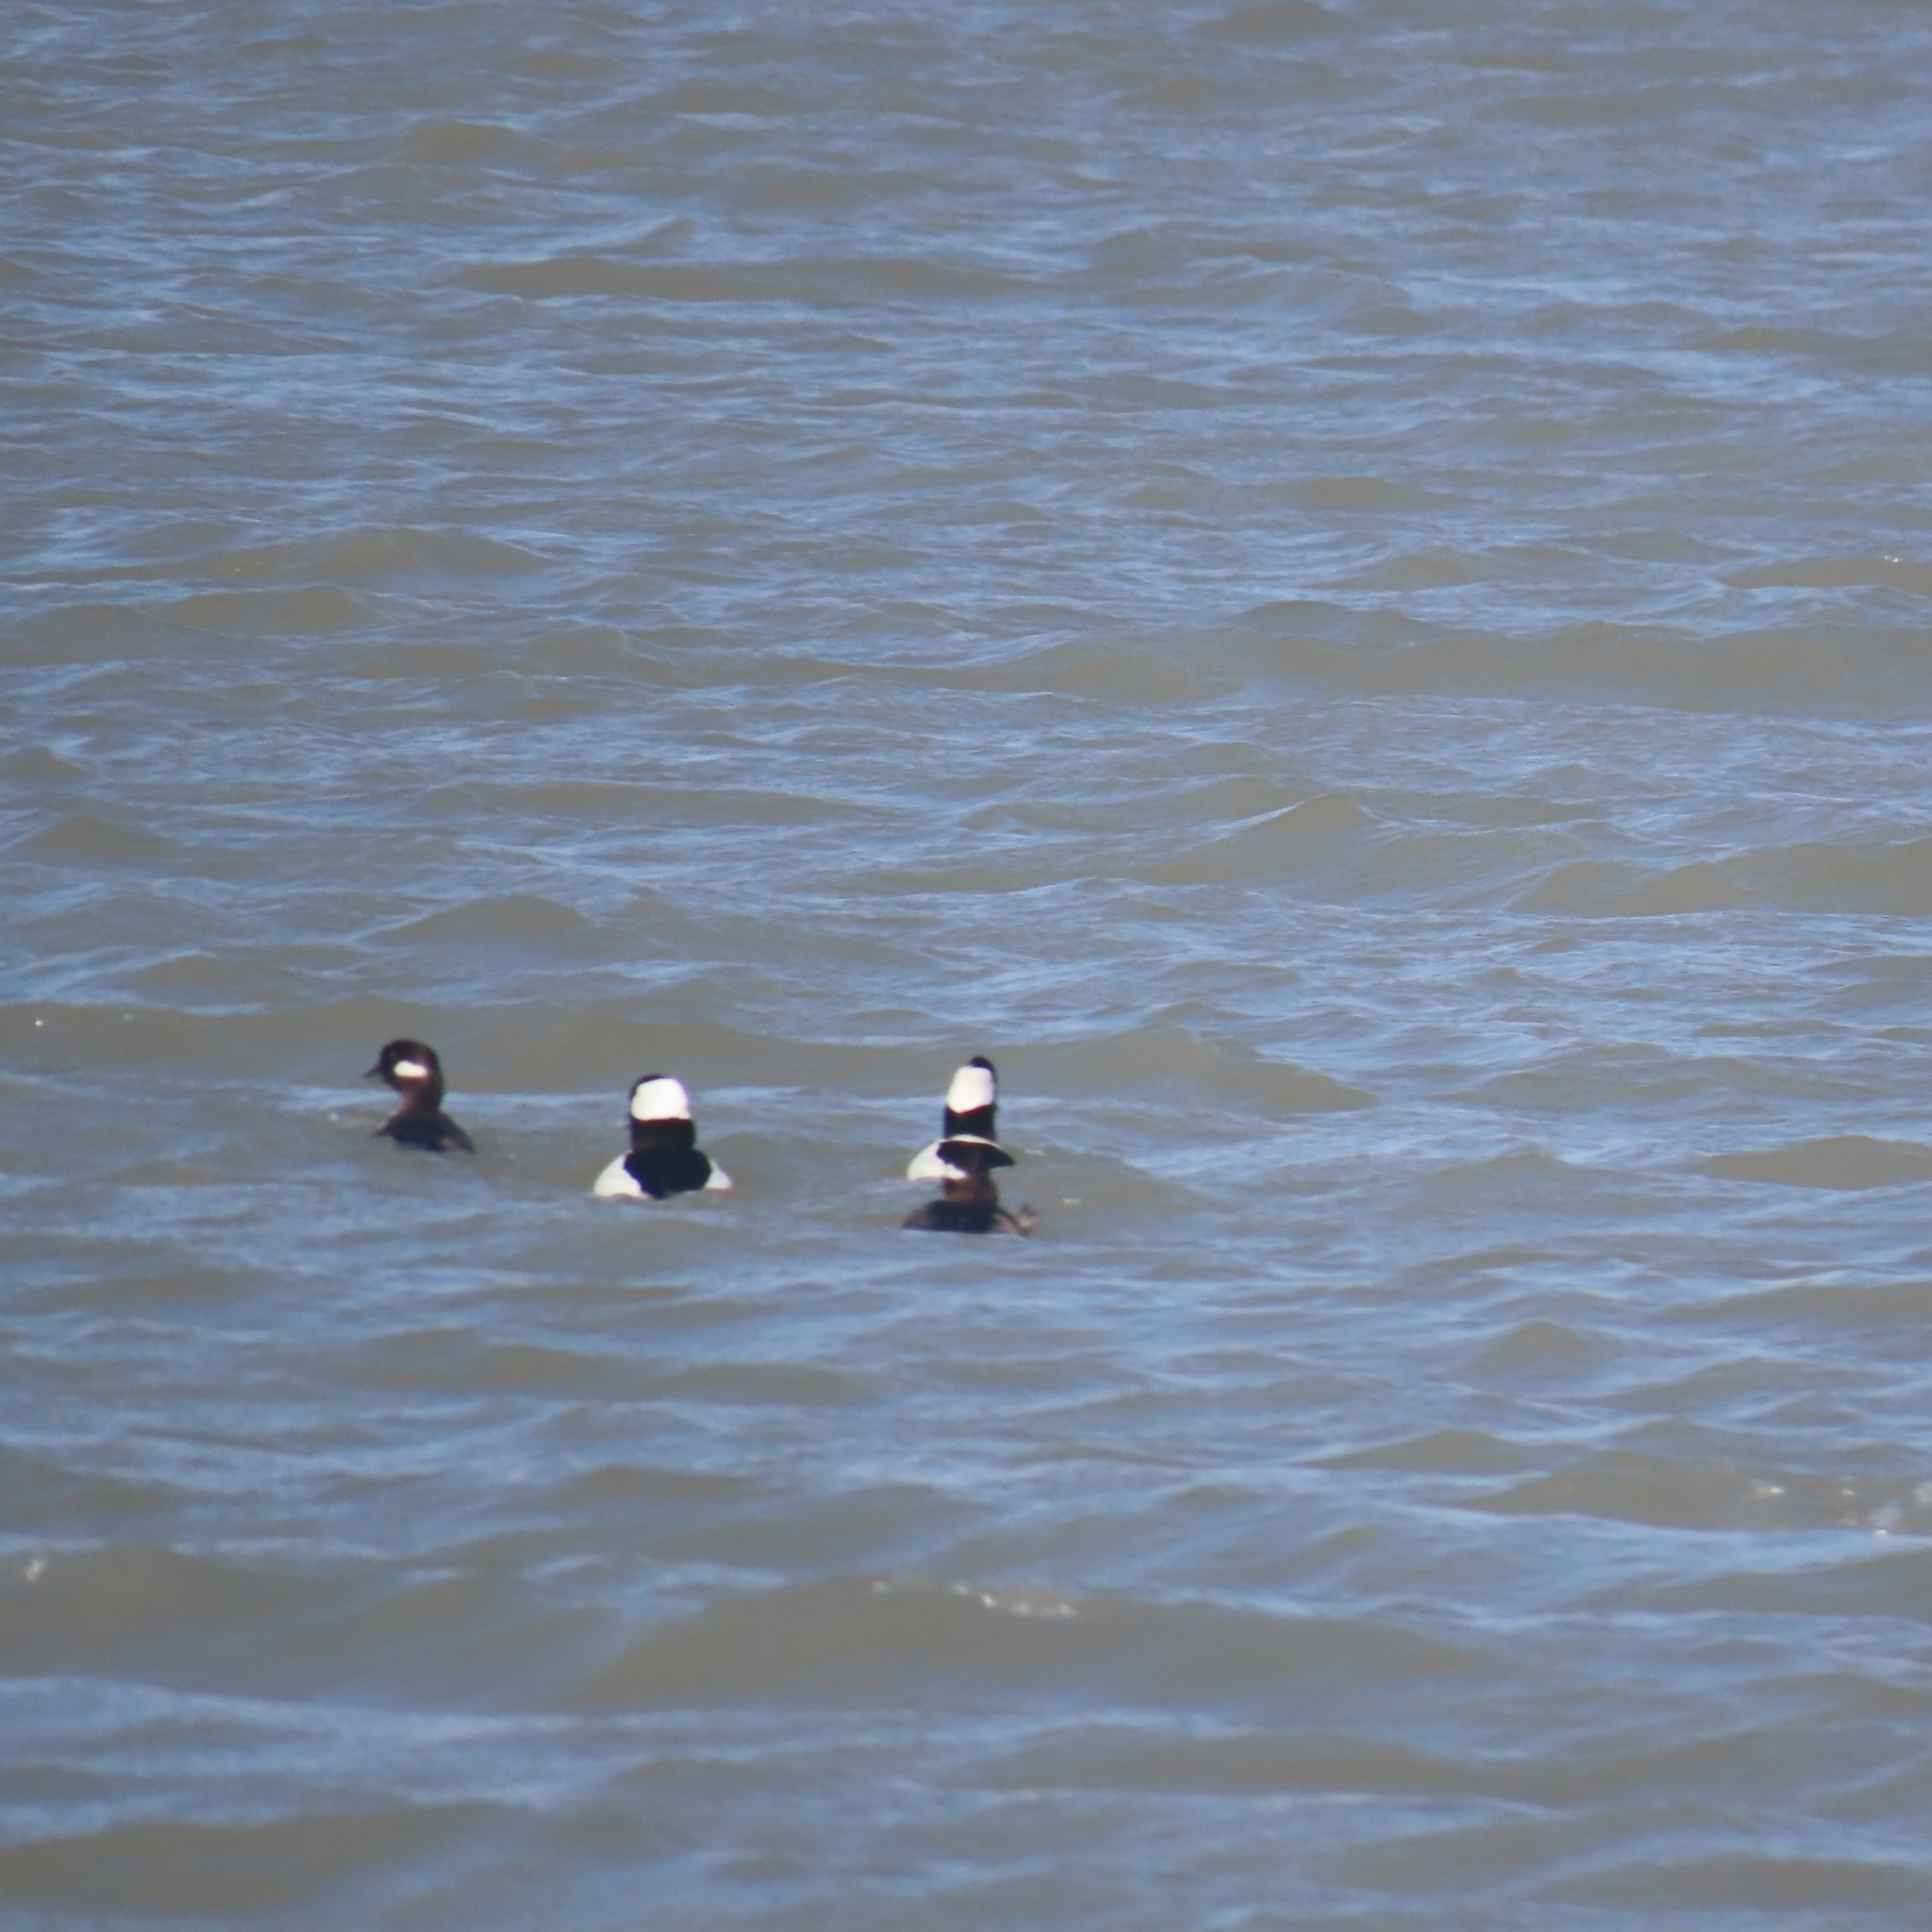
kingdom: Animalia
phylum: Chordata
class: Aves
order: Anseriformes
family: Anatidae
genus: Bucephala
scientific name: Bucephala albeola
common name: Bufflehead
